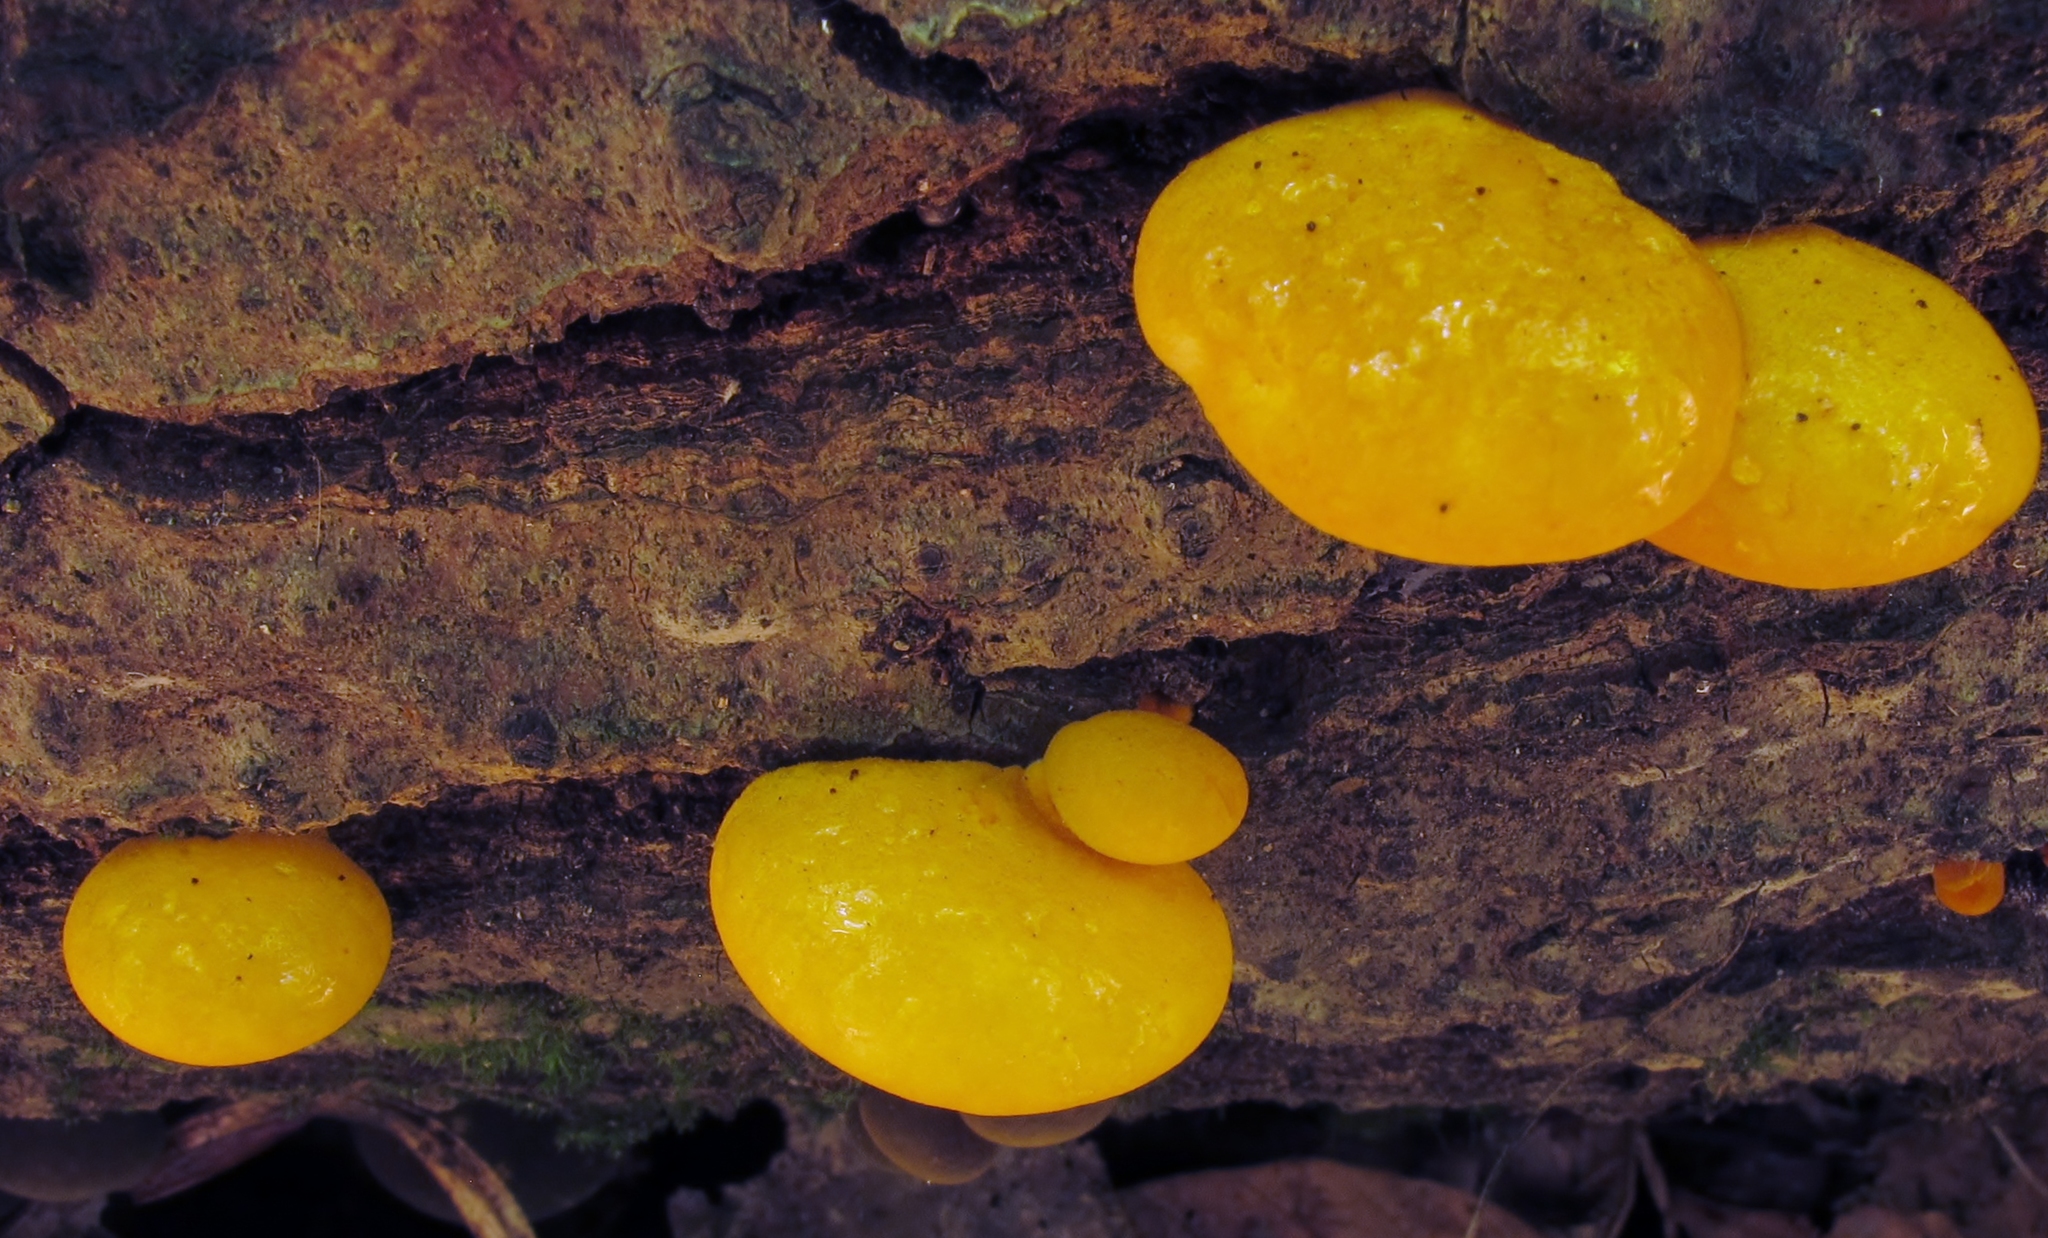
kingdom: Fungi
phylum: Basidiomycota
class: Agaricomycetes
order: Agaricales
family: Sarcomyxaceae
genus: Sarcomyxa
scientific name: Sarcomyxa serotina
